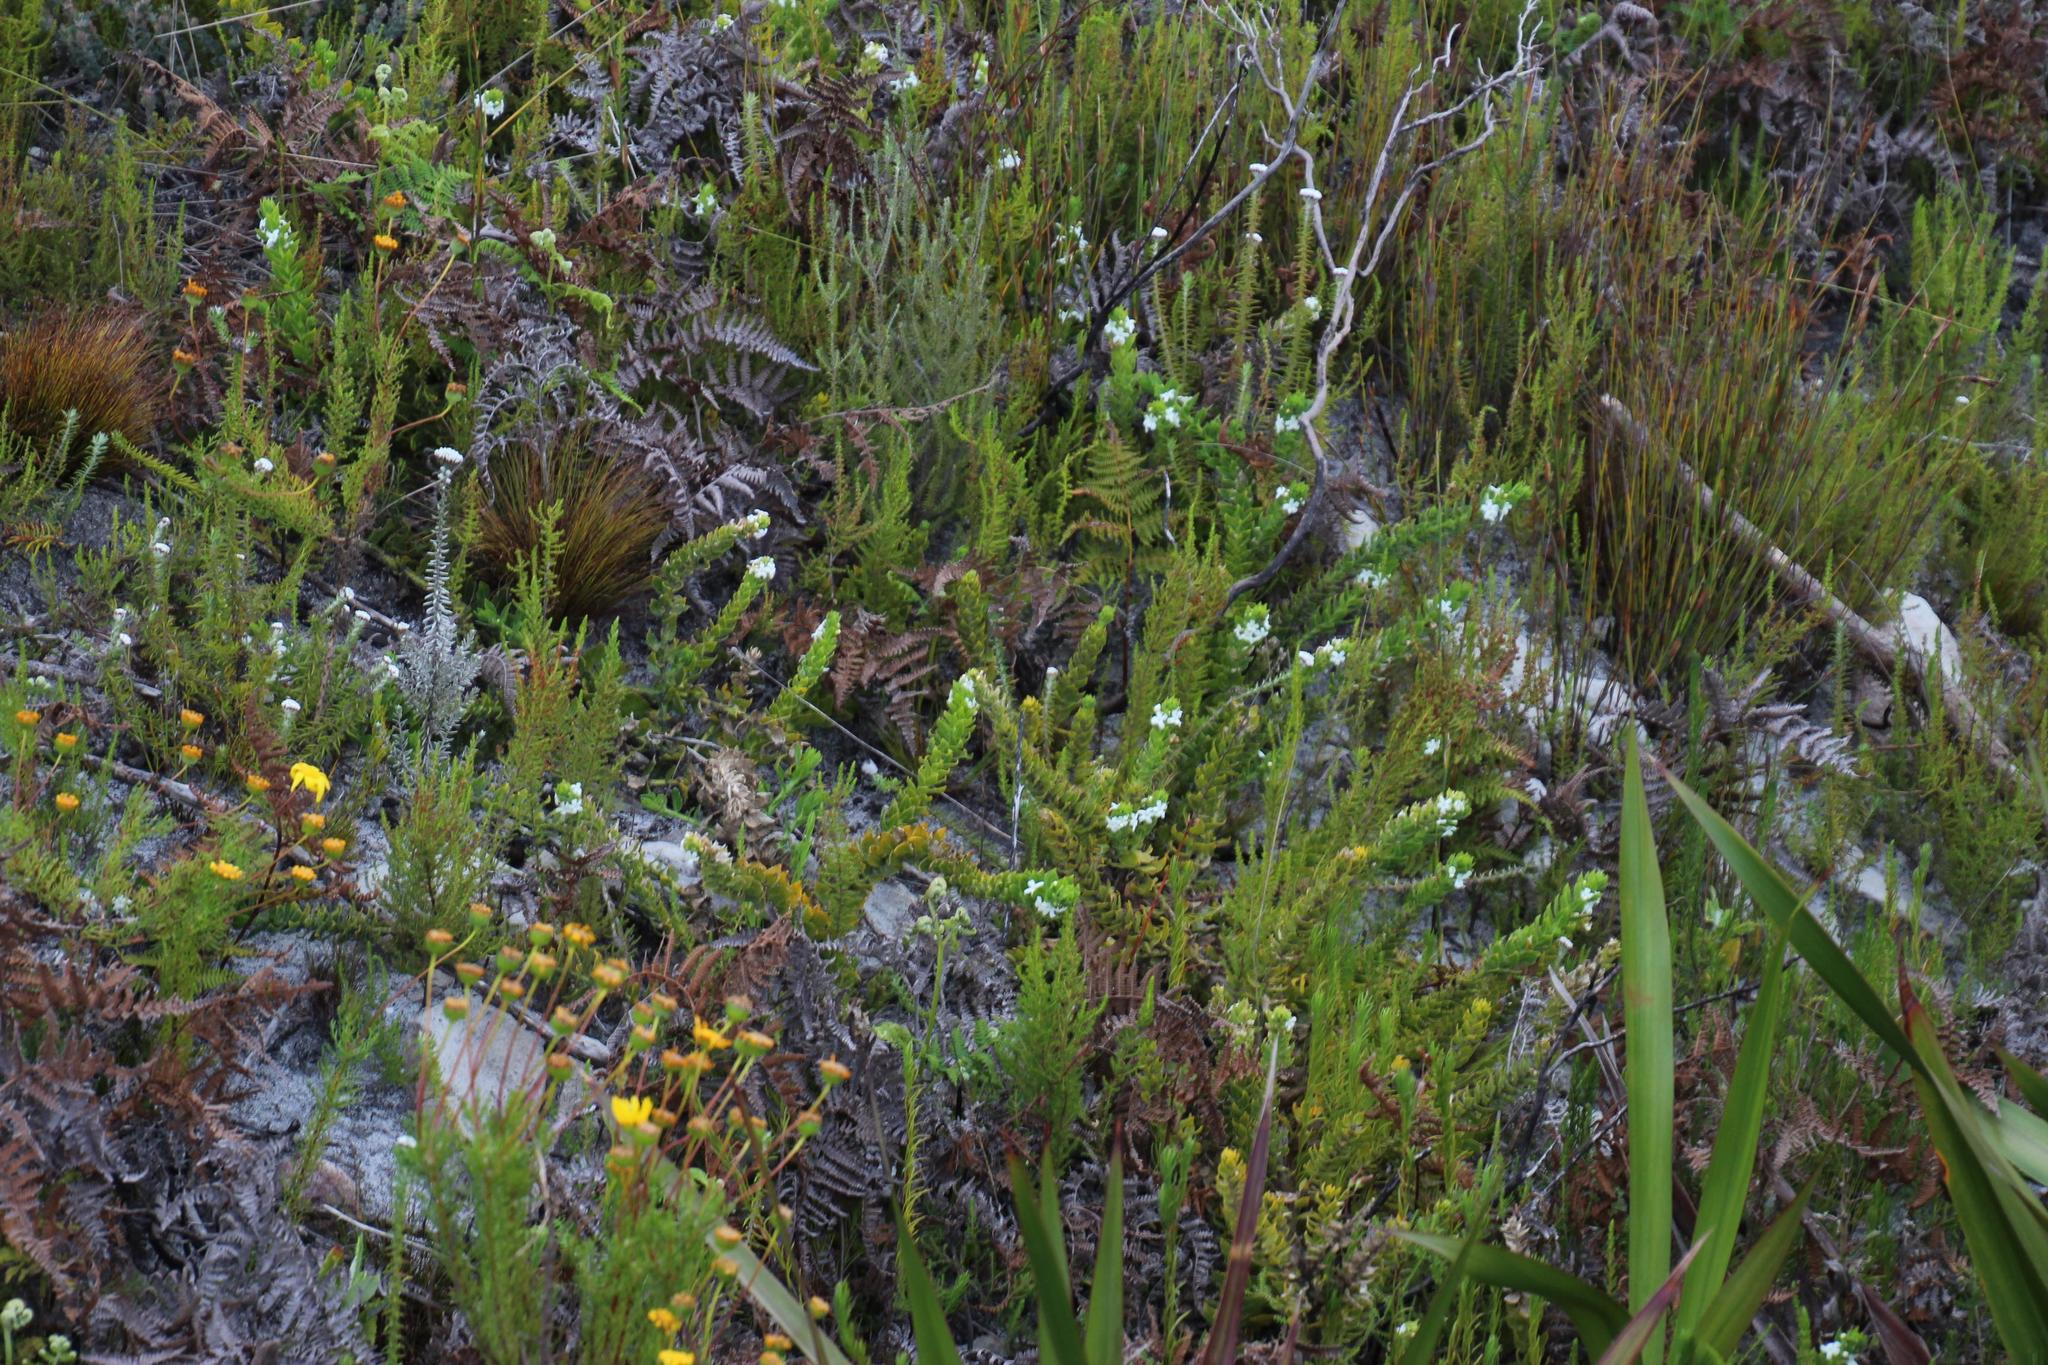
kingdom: Plantae
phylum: Tracheophyta
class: Magnoliopsida
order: Lamiales
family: Scrophulariaceae
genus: Oftia
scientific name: Oftia africana
